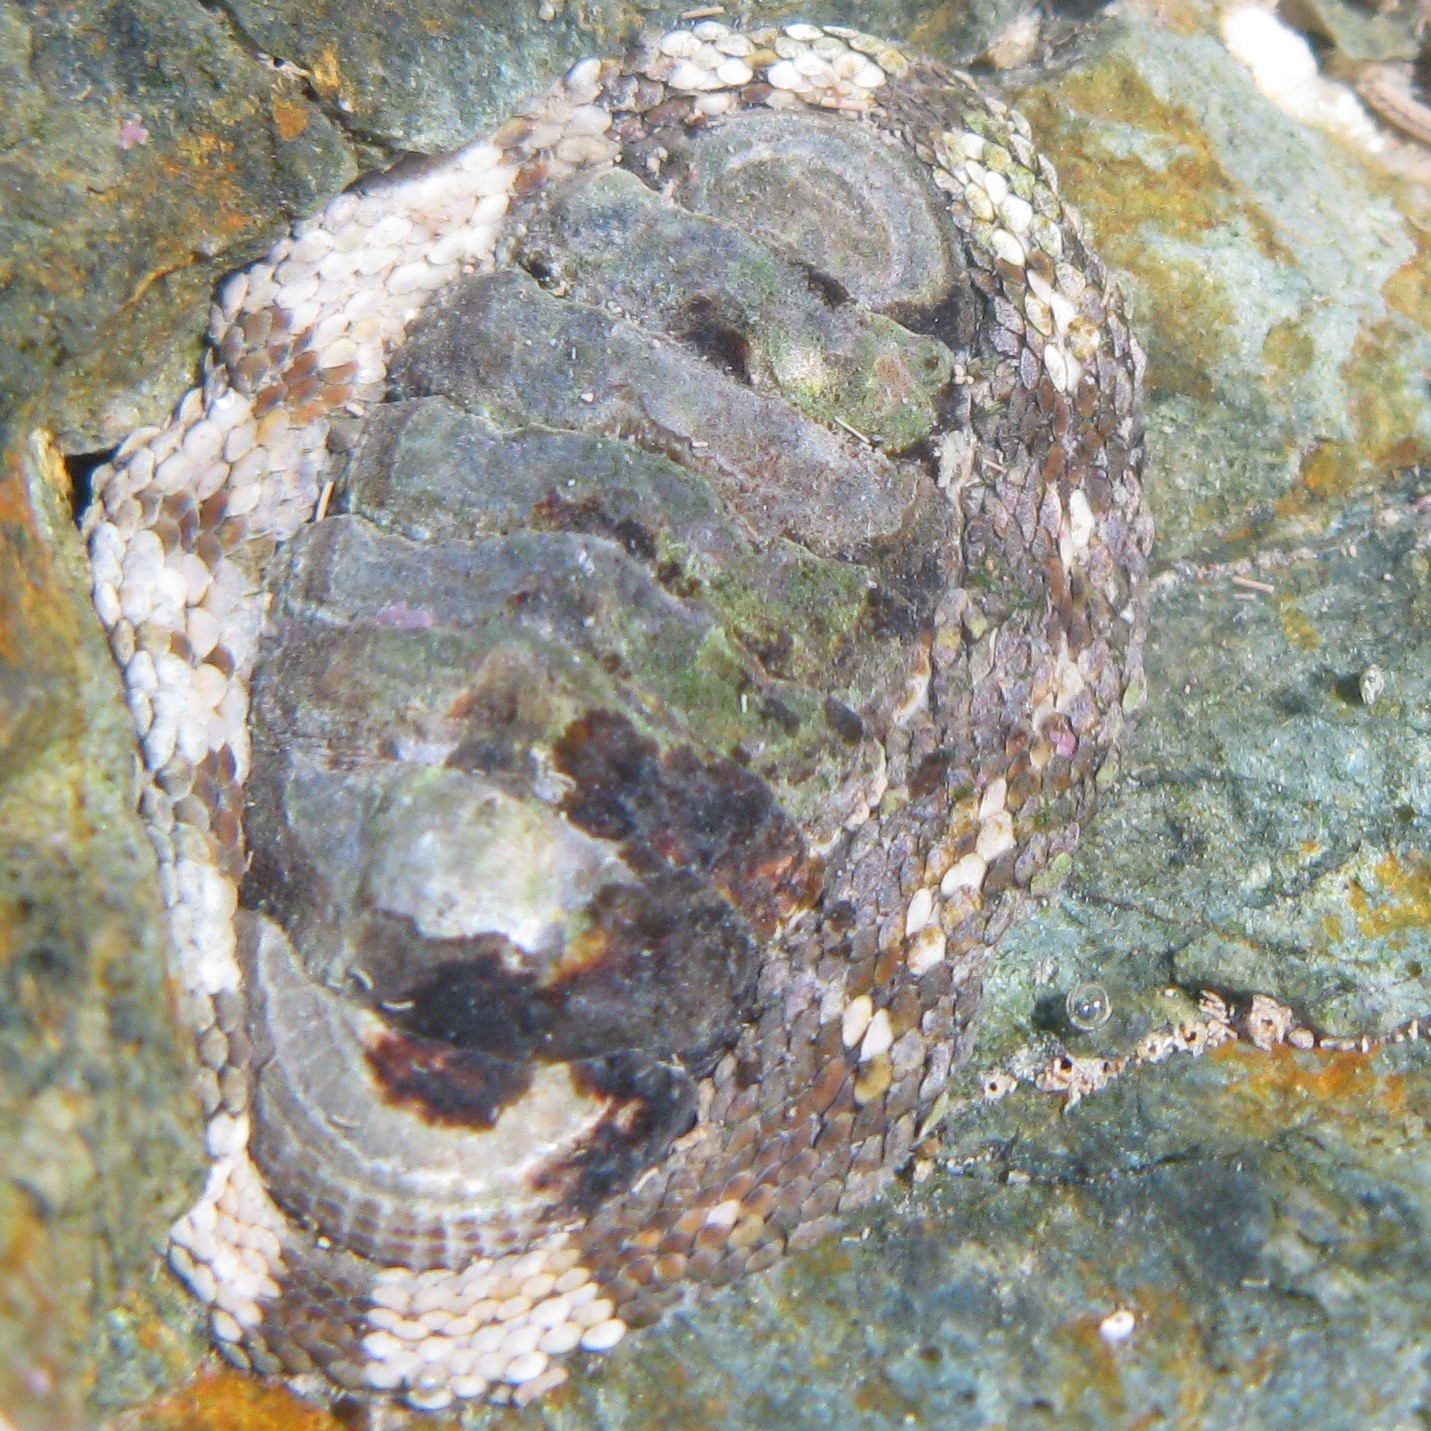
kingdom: Animalia
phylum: Mollusca
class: Polyplacophora
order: Chitonida
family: Chitonidae
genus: Sypharochiton
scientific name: Sypharochiton pelliserpentis
